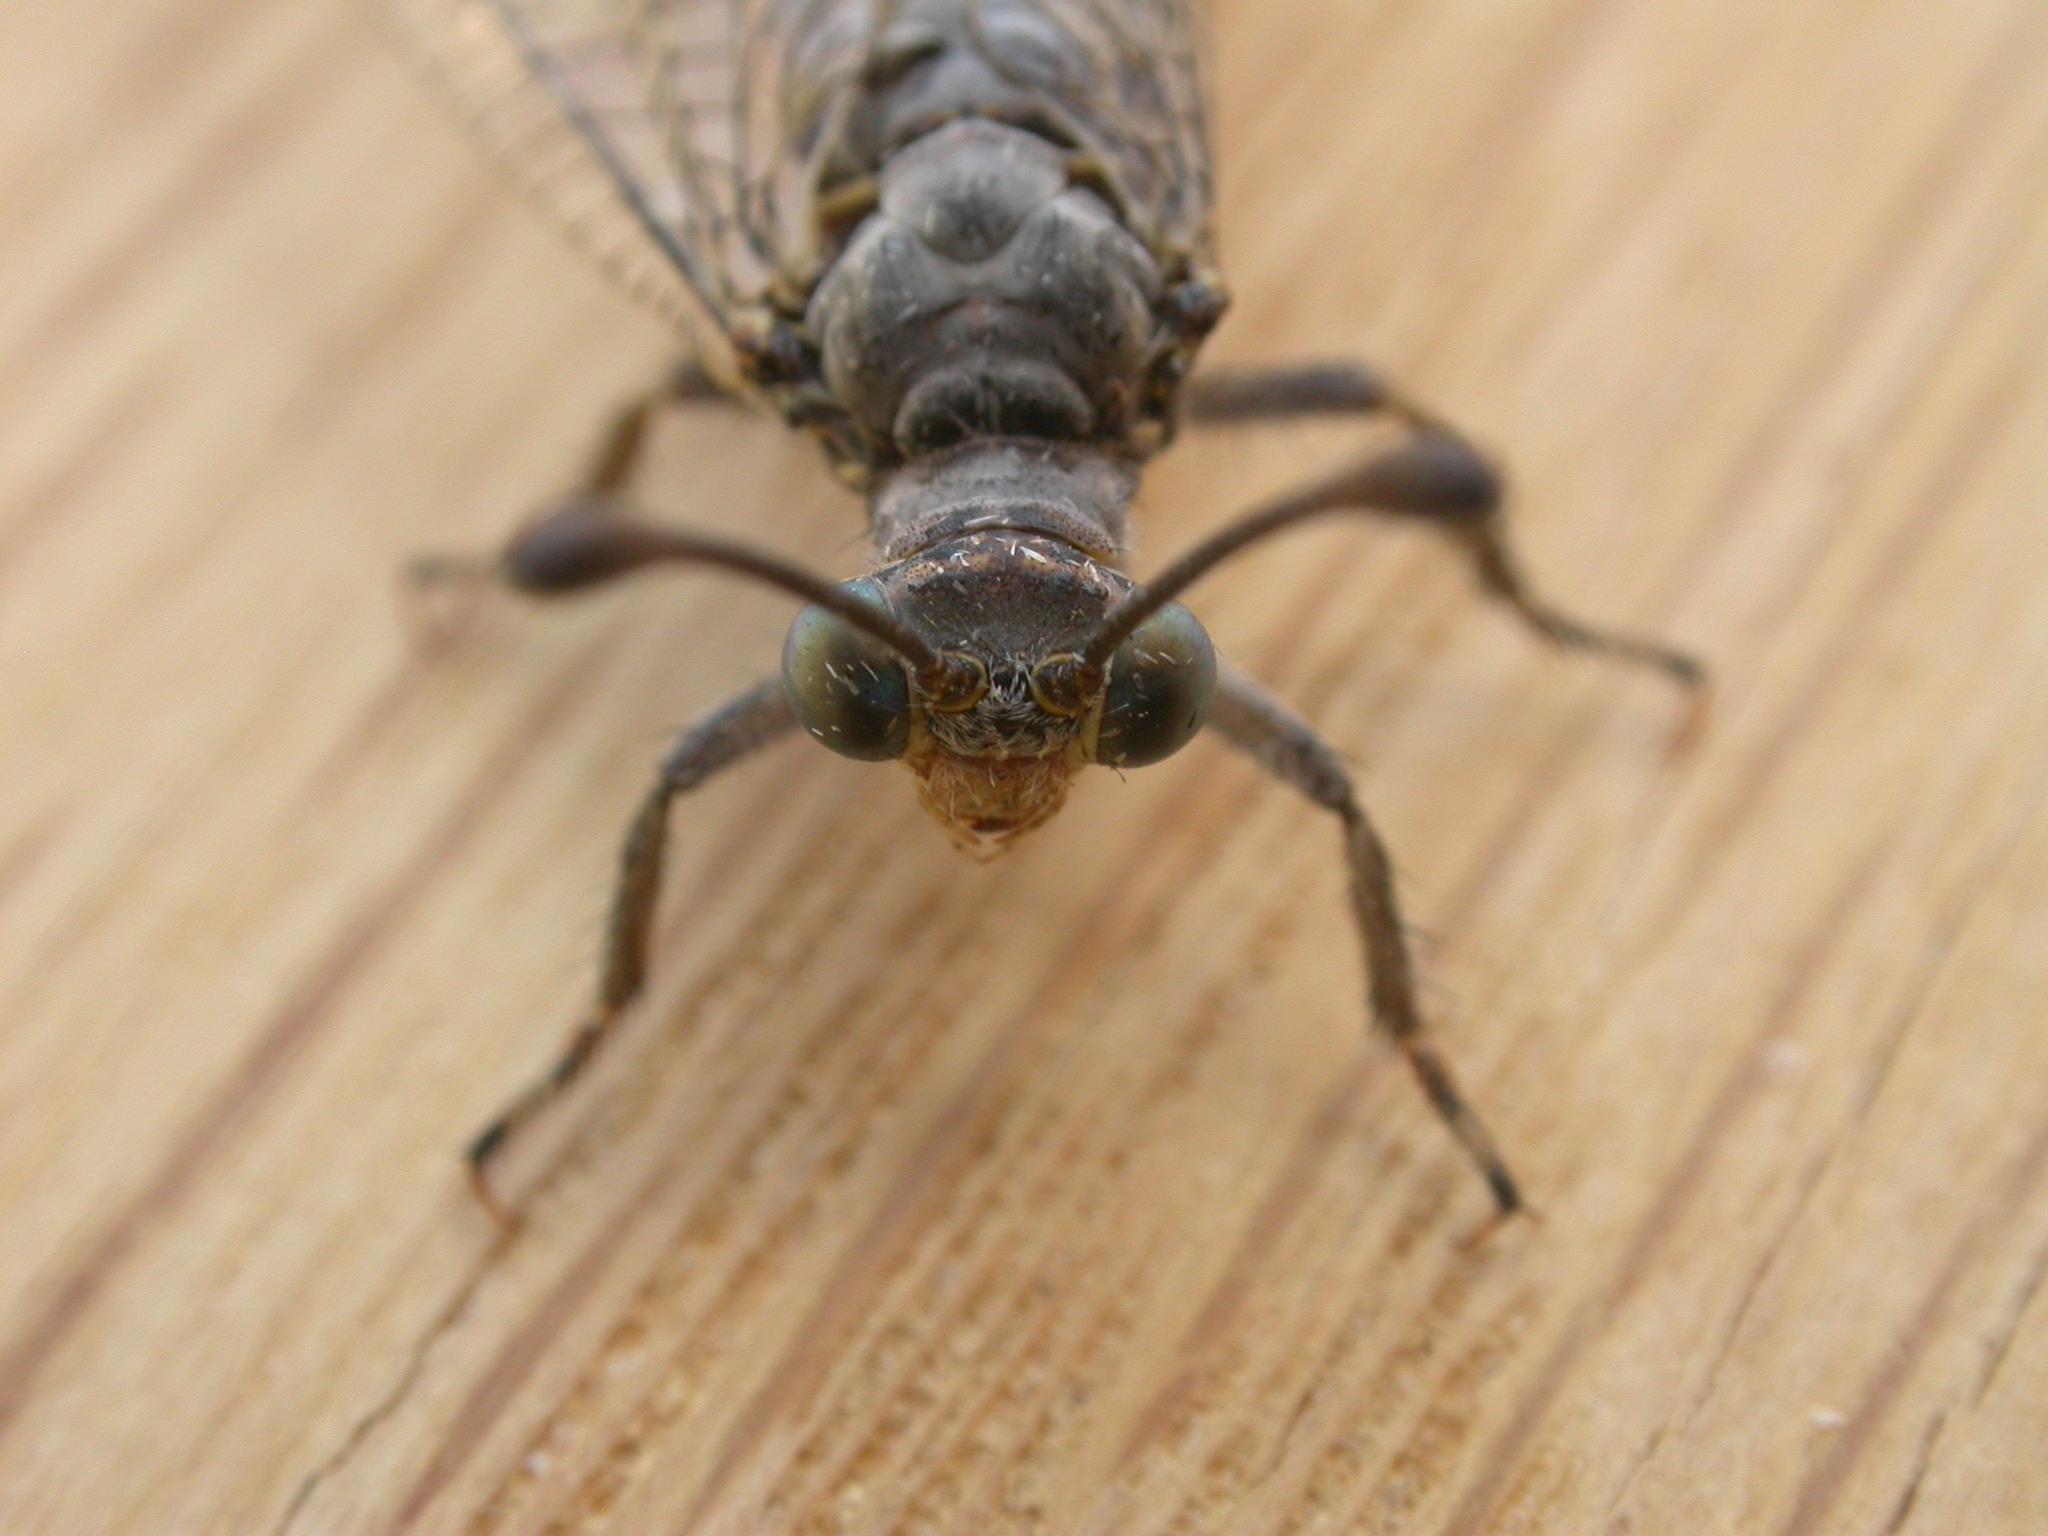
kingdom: Animalia
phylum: Arthropoda
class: Insecta
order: Neuroptera
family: Myrmeleontidae
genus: Bandidus
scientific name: Bandidus canifrons
